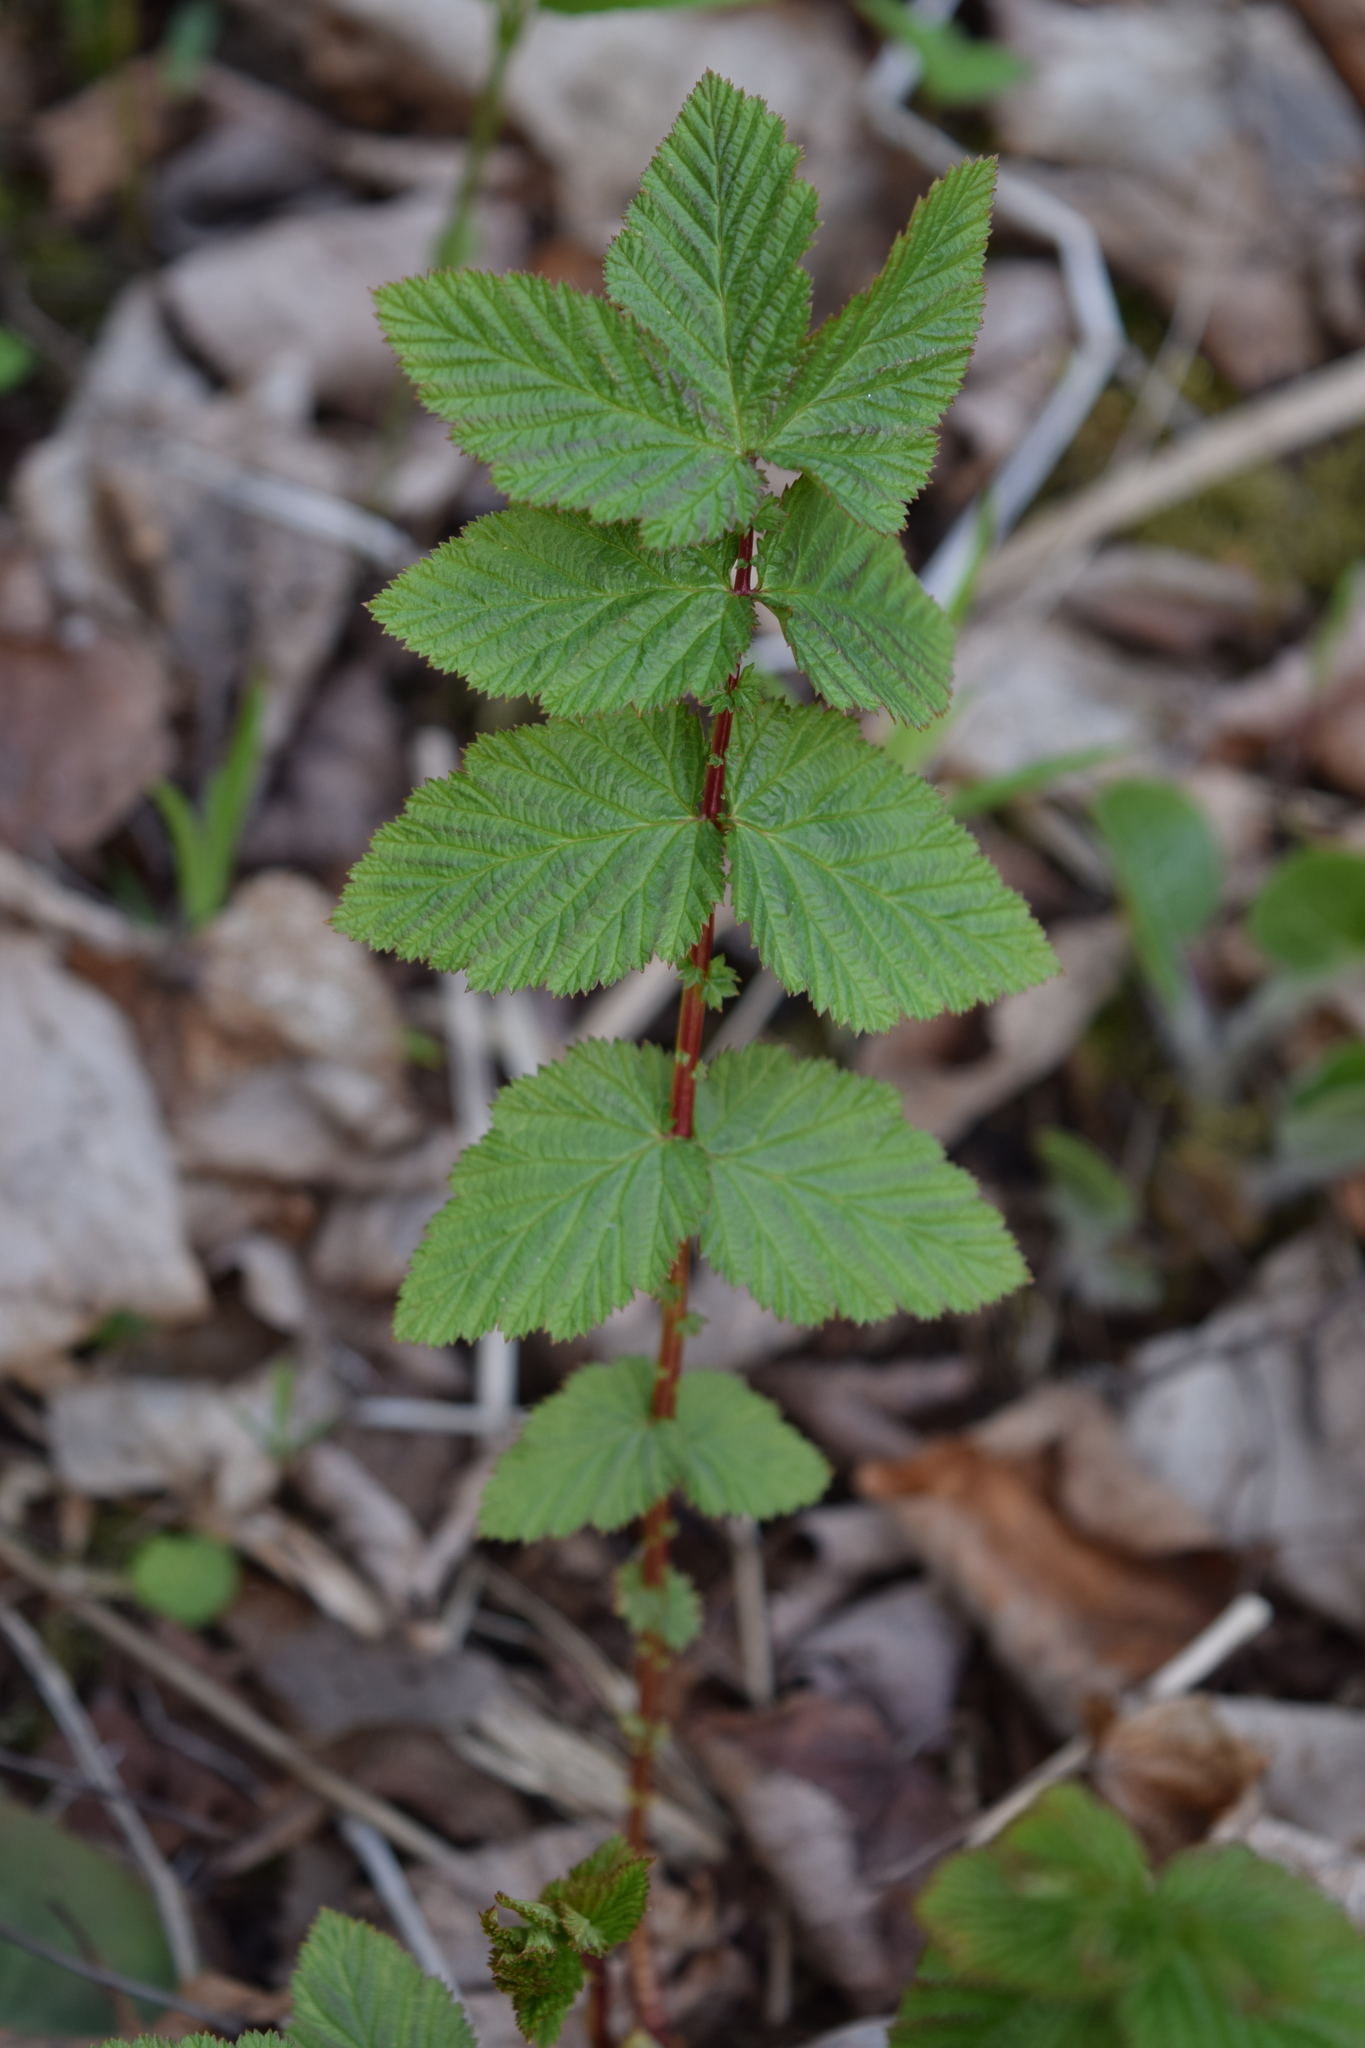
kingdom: Plantae
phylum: Tracheophyta
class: Magnoliopsida
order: Rosales
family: Rosaceae
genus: Filipendula
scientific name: Filipendula ulmaria
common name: Meadowsweet
